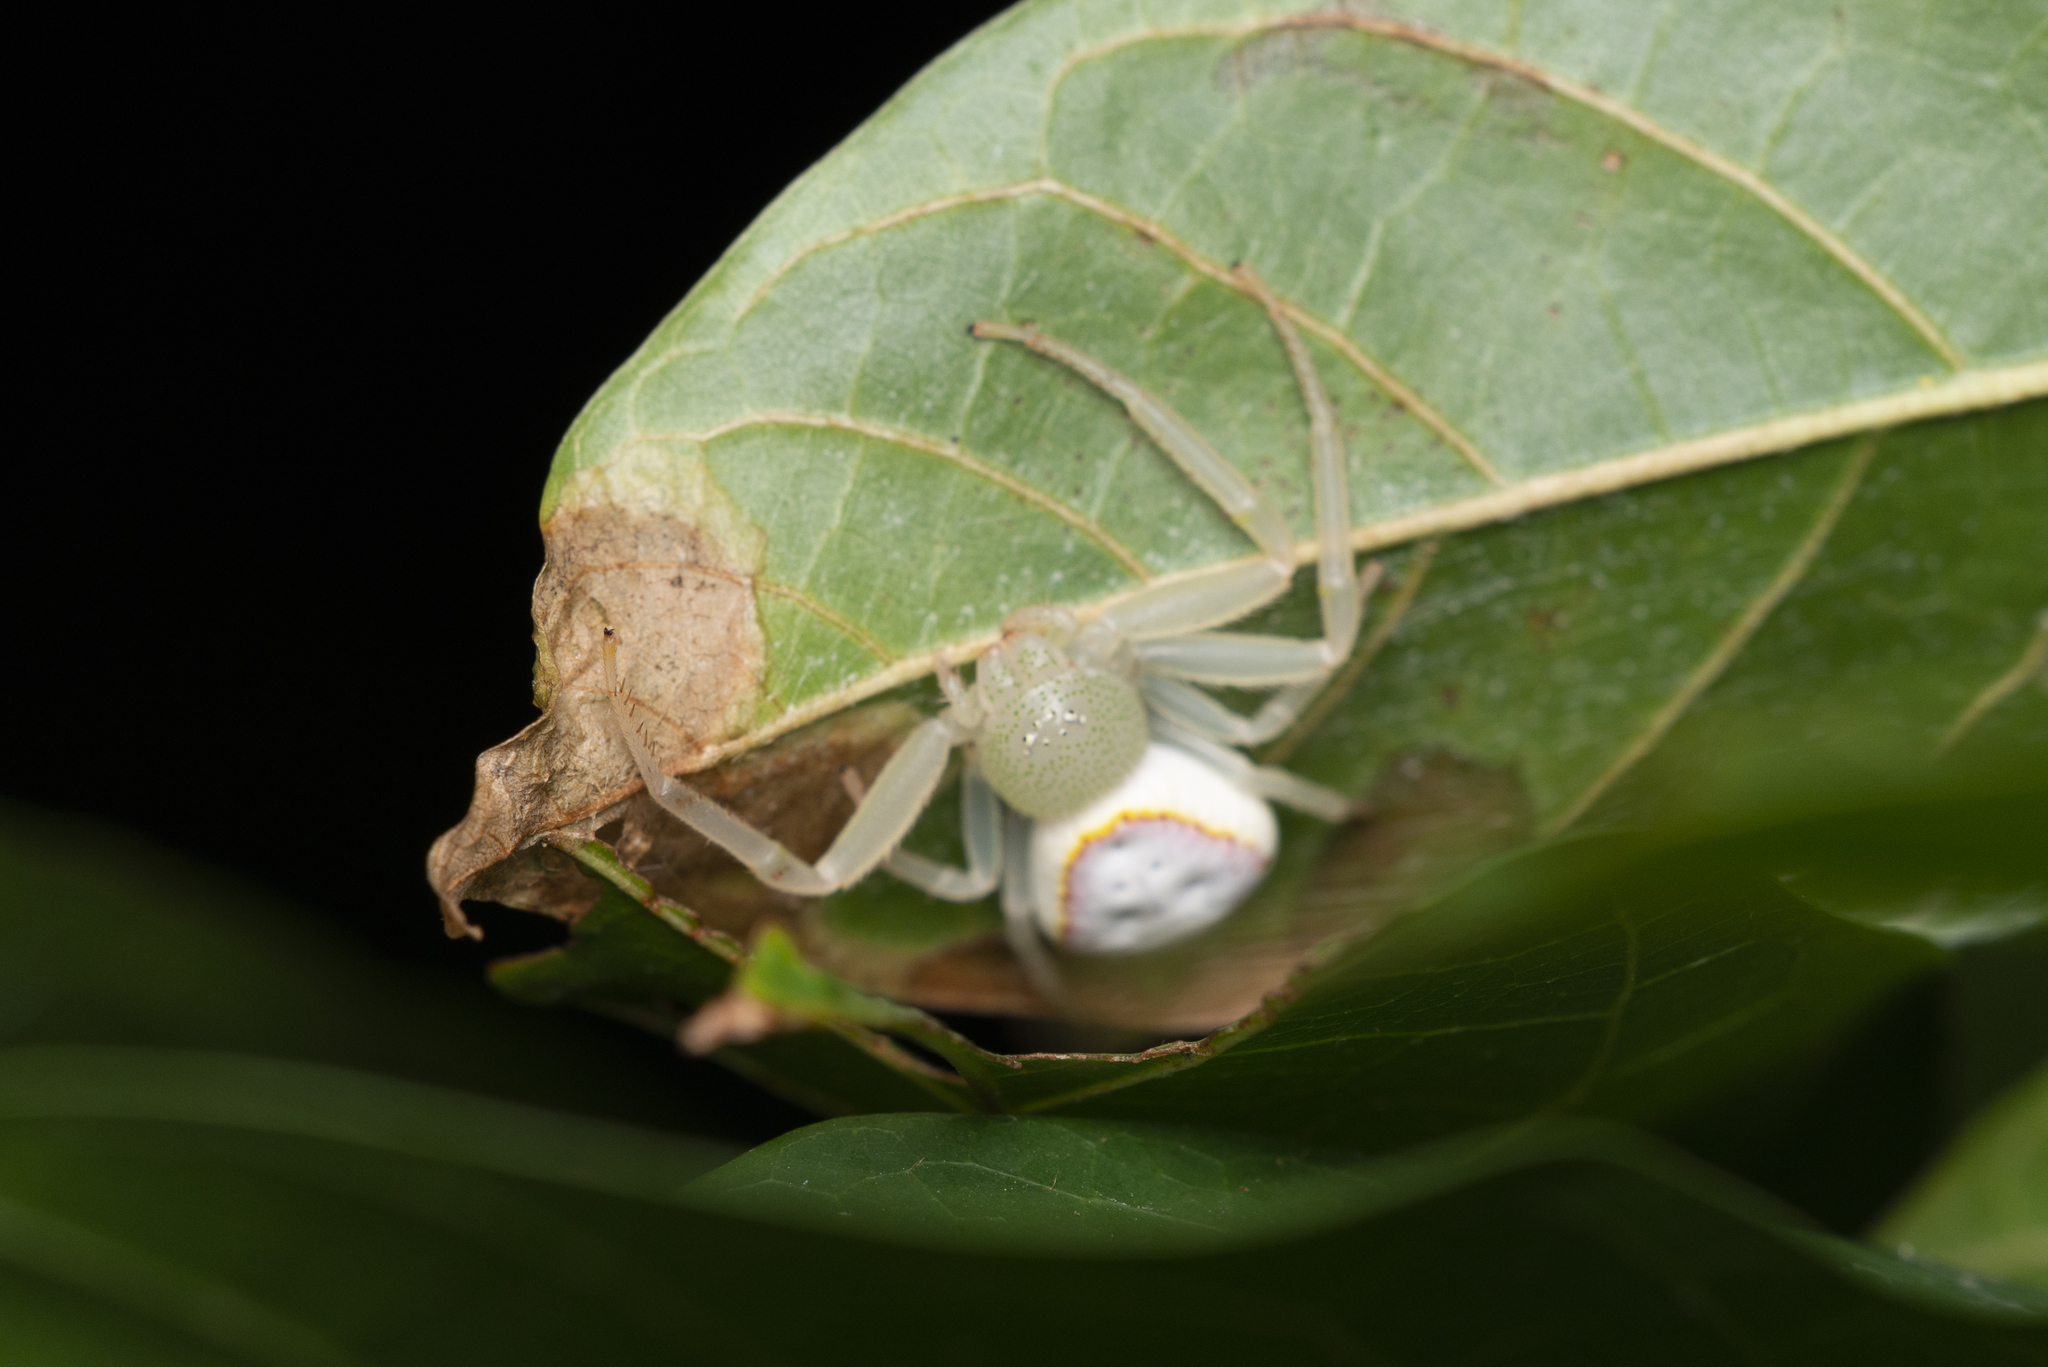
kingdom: Animalia
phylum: Arthropoda
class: Arachnida
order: Araneae
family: Thomisidae
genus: Diaea
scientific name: Diaea simplex
